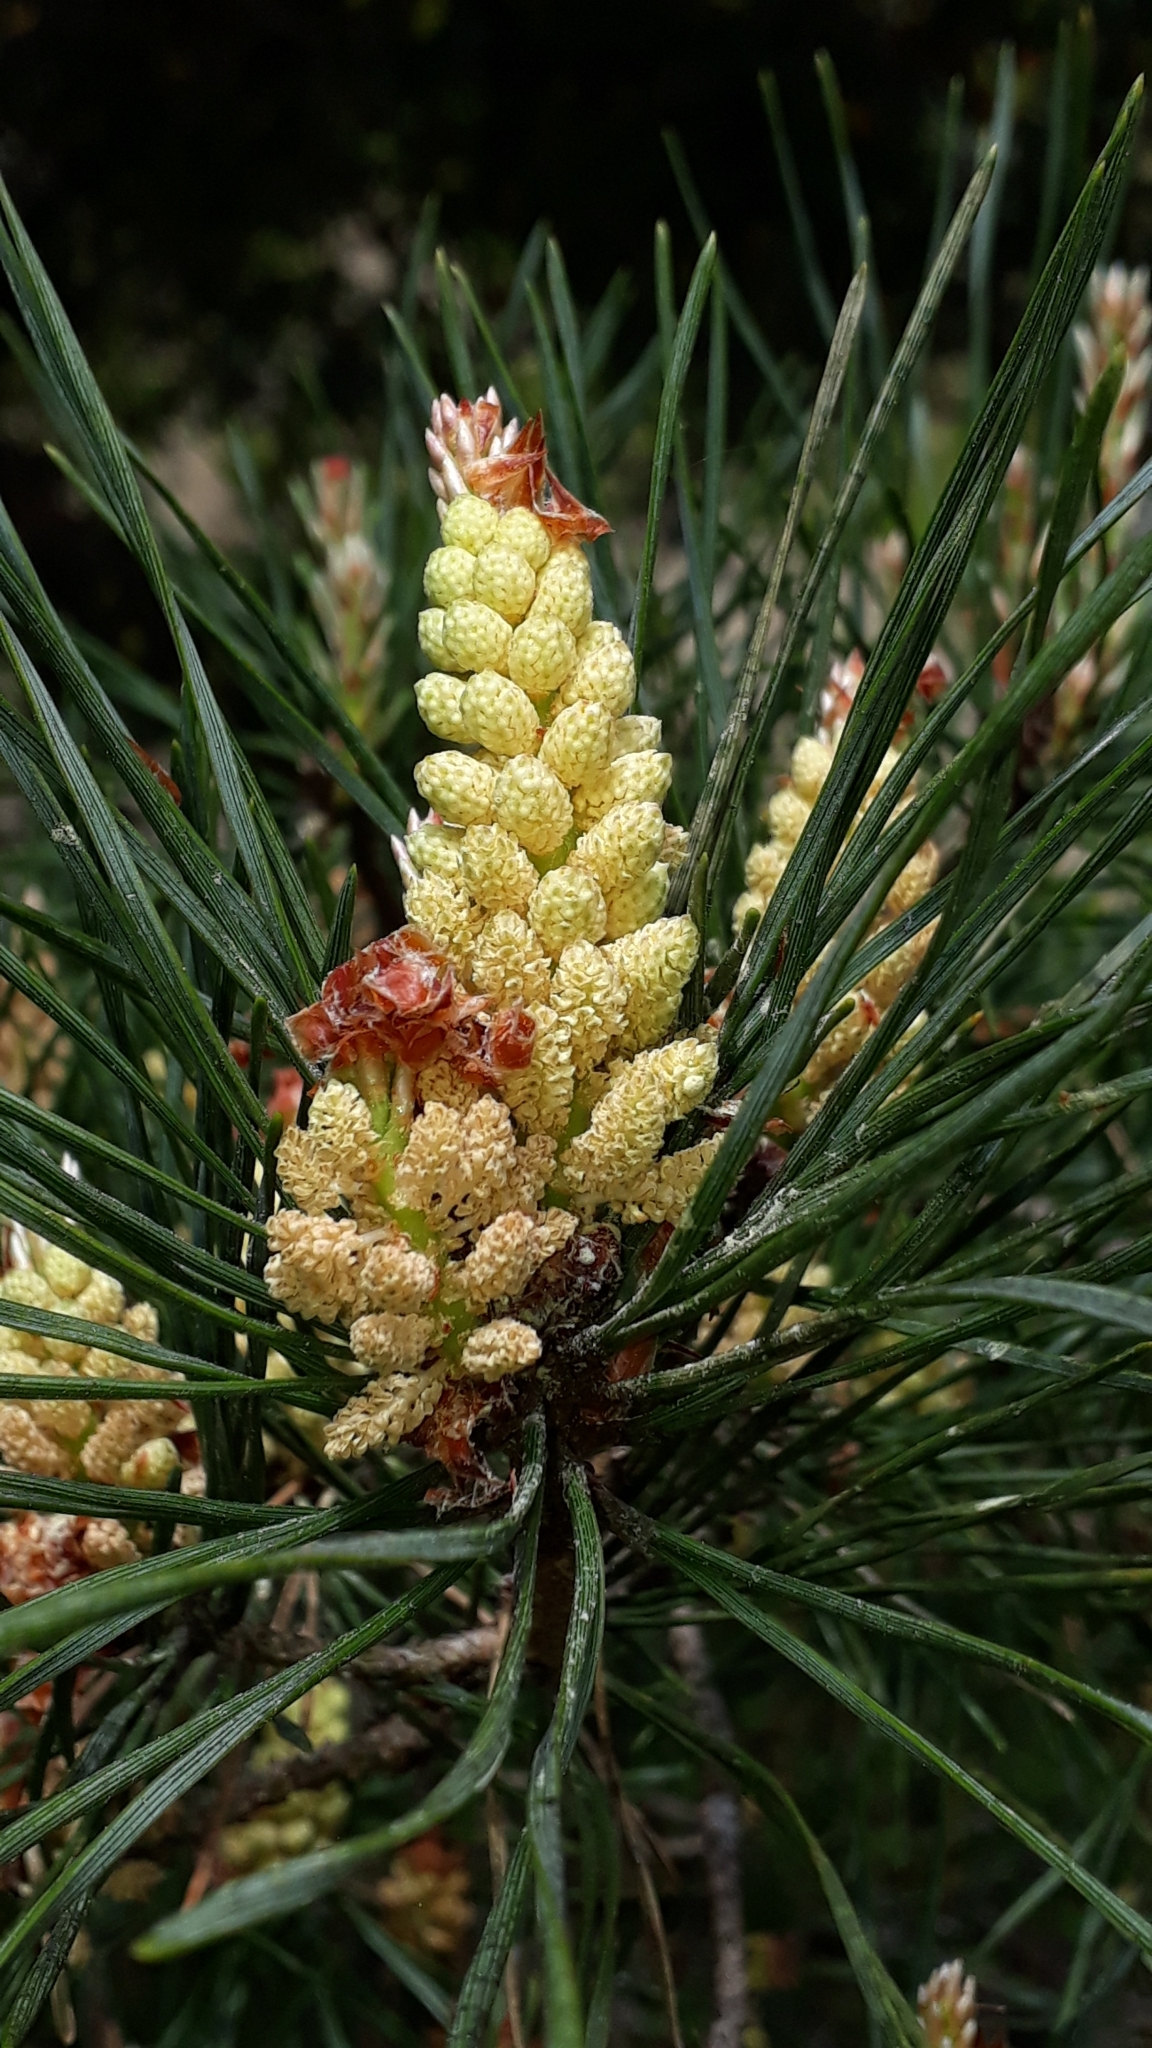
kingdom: Plantae
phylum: Tracheophyta
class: Pinopsida
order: Pinales
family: Pinaceae
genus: Pinus
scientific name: Pinus sylvestris
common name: Scots pine
